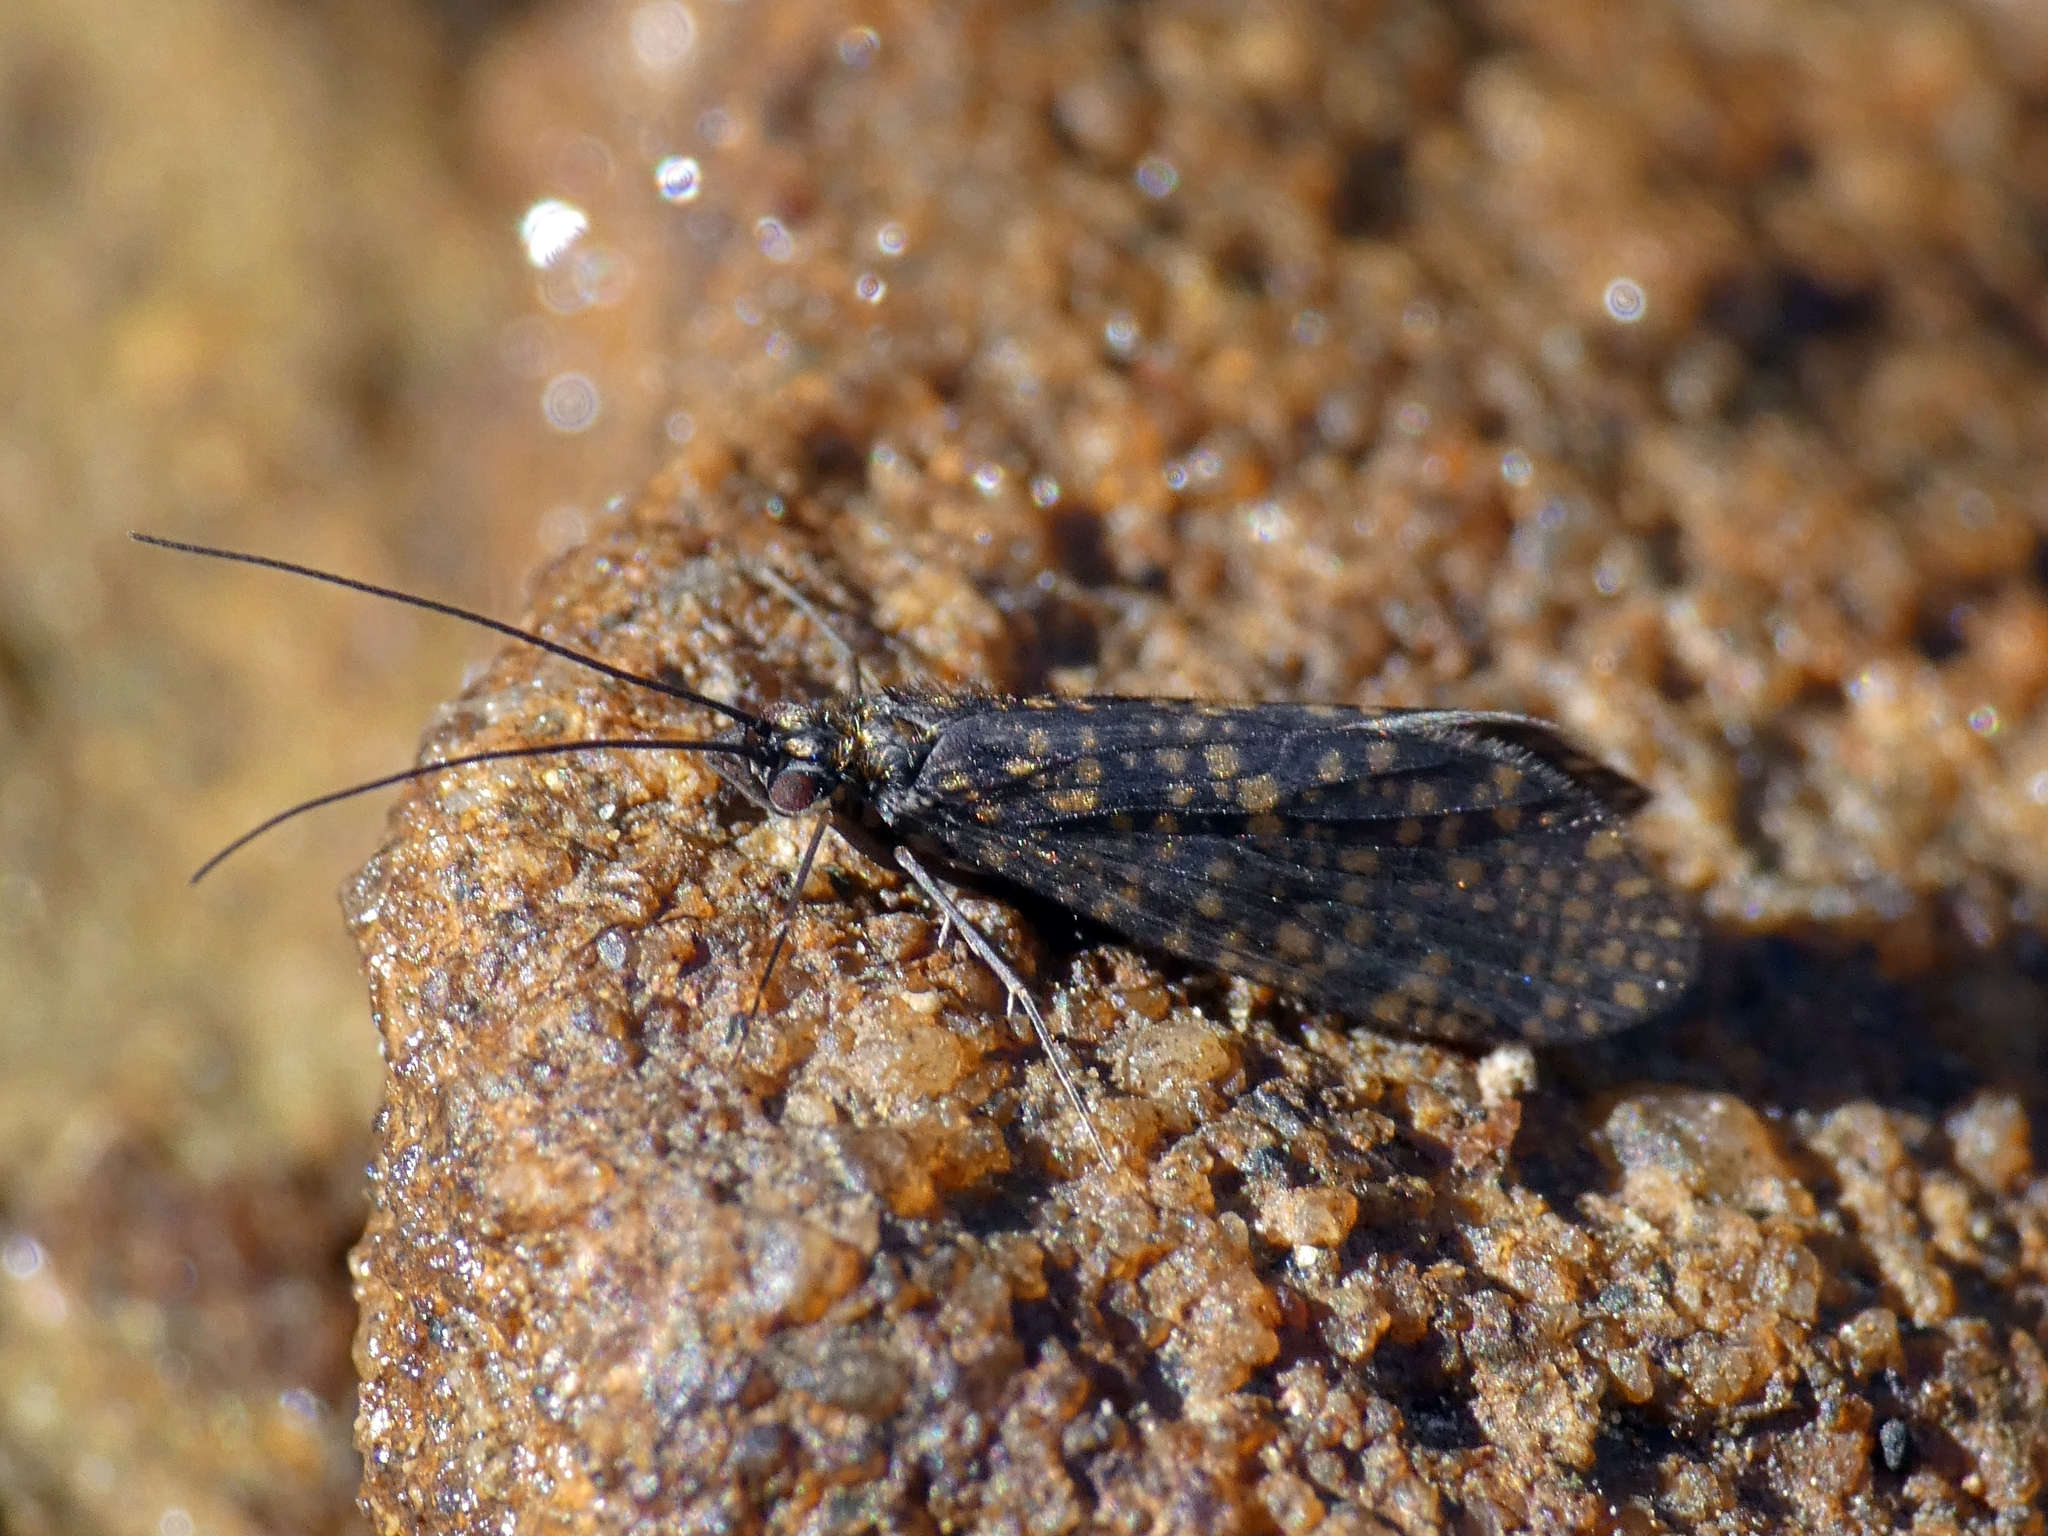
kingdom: Animalia
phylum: Arthropoda
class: Insecta
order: Trichoptera
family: Philopotamidae
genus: Dolophilodes
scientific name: Dolophilodes distinctus
